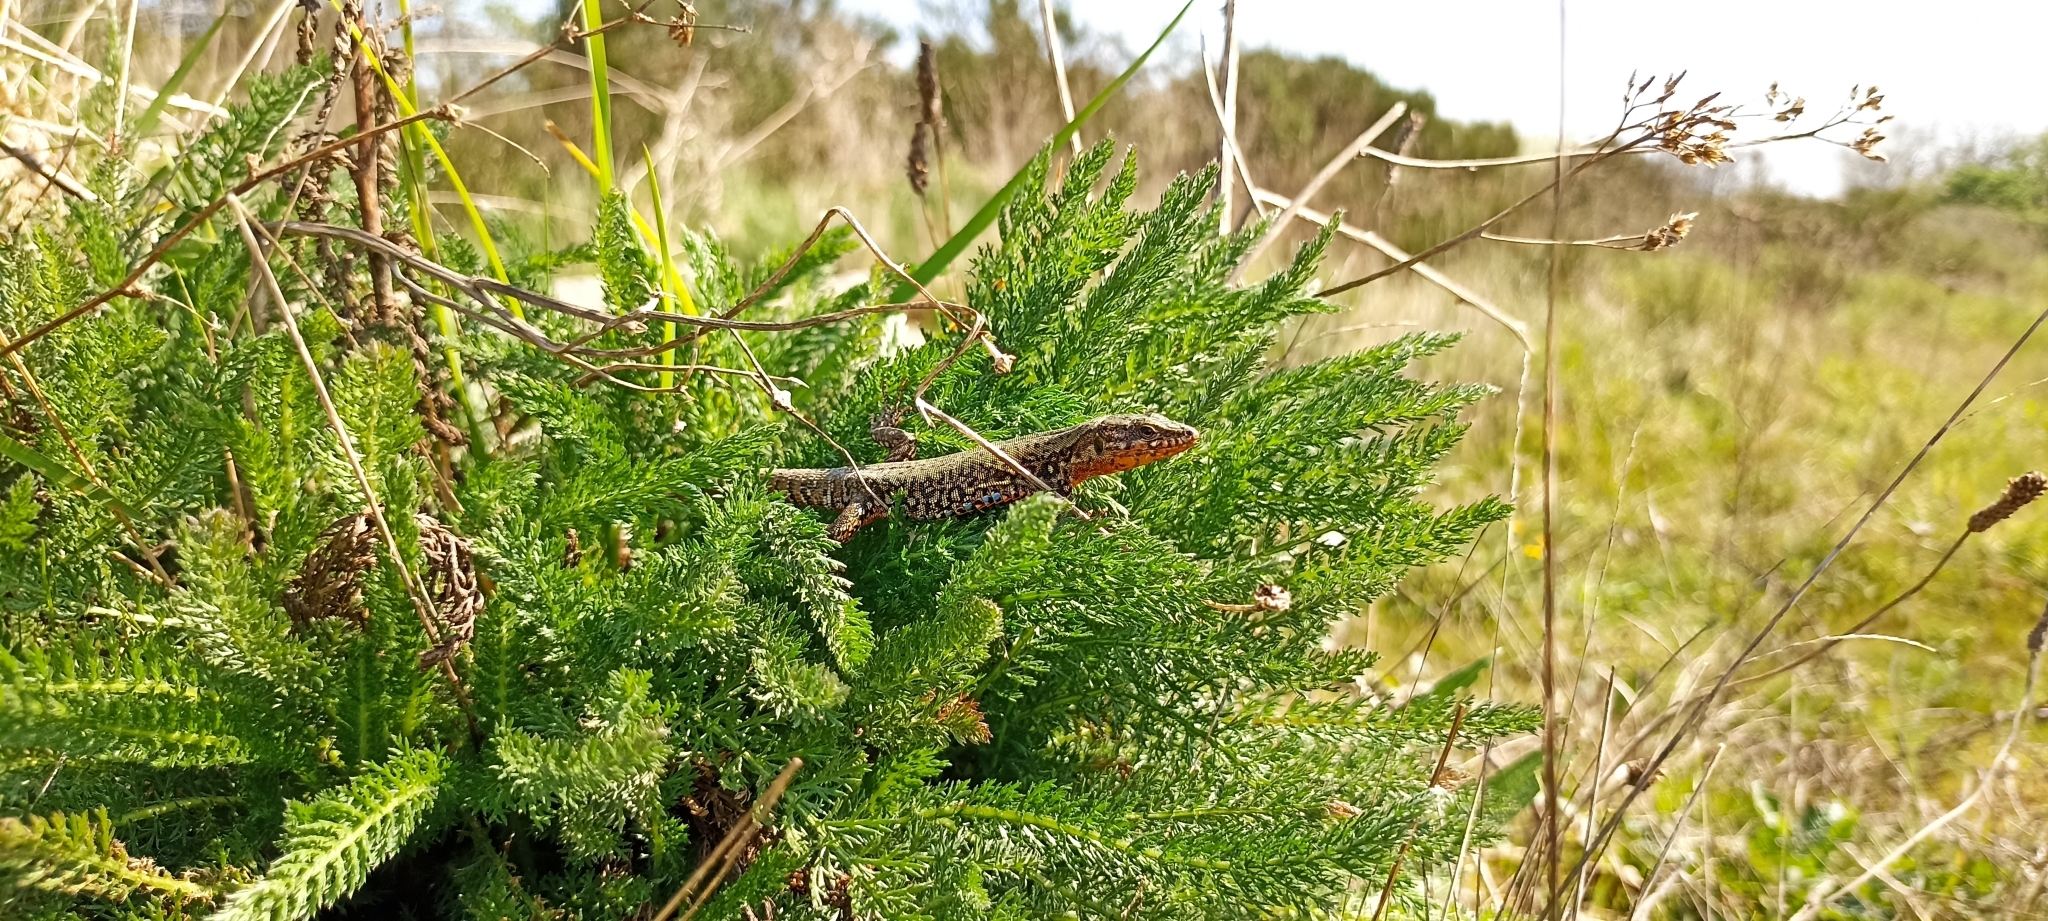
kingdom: Animalia
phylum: Chordata
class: Squamata
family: Lacertidae
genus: Podarcis
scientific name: Podarcis muralis
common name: Common wall lizard
